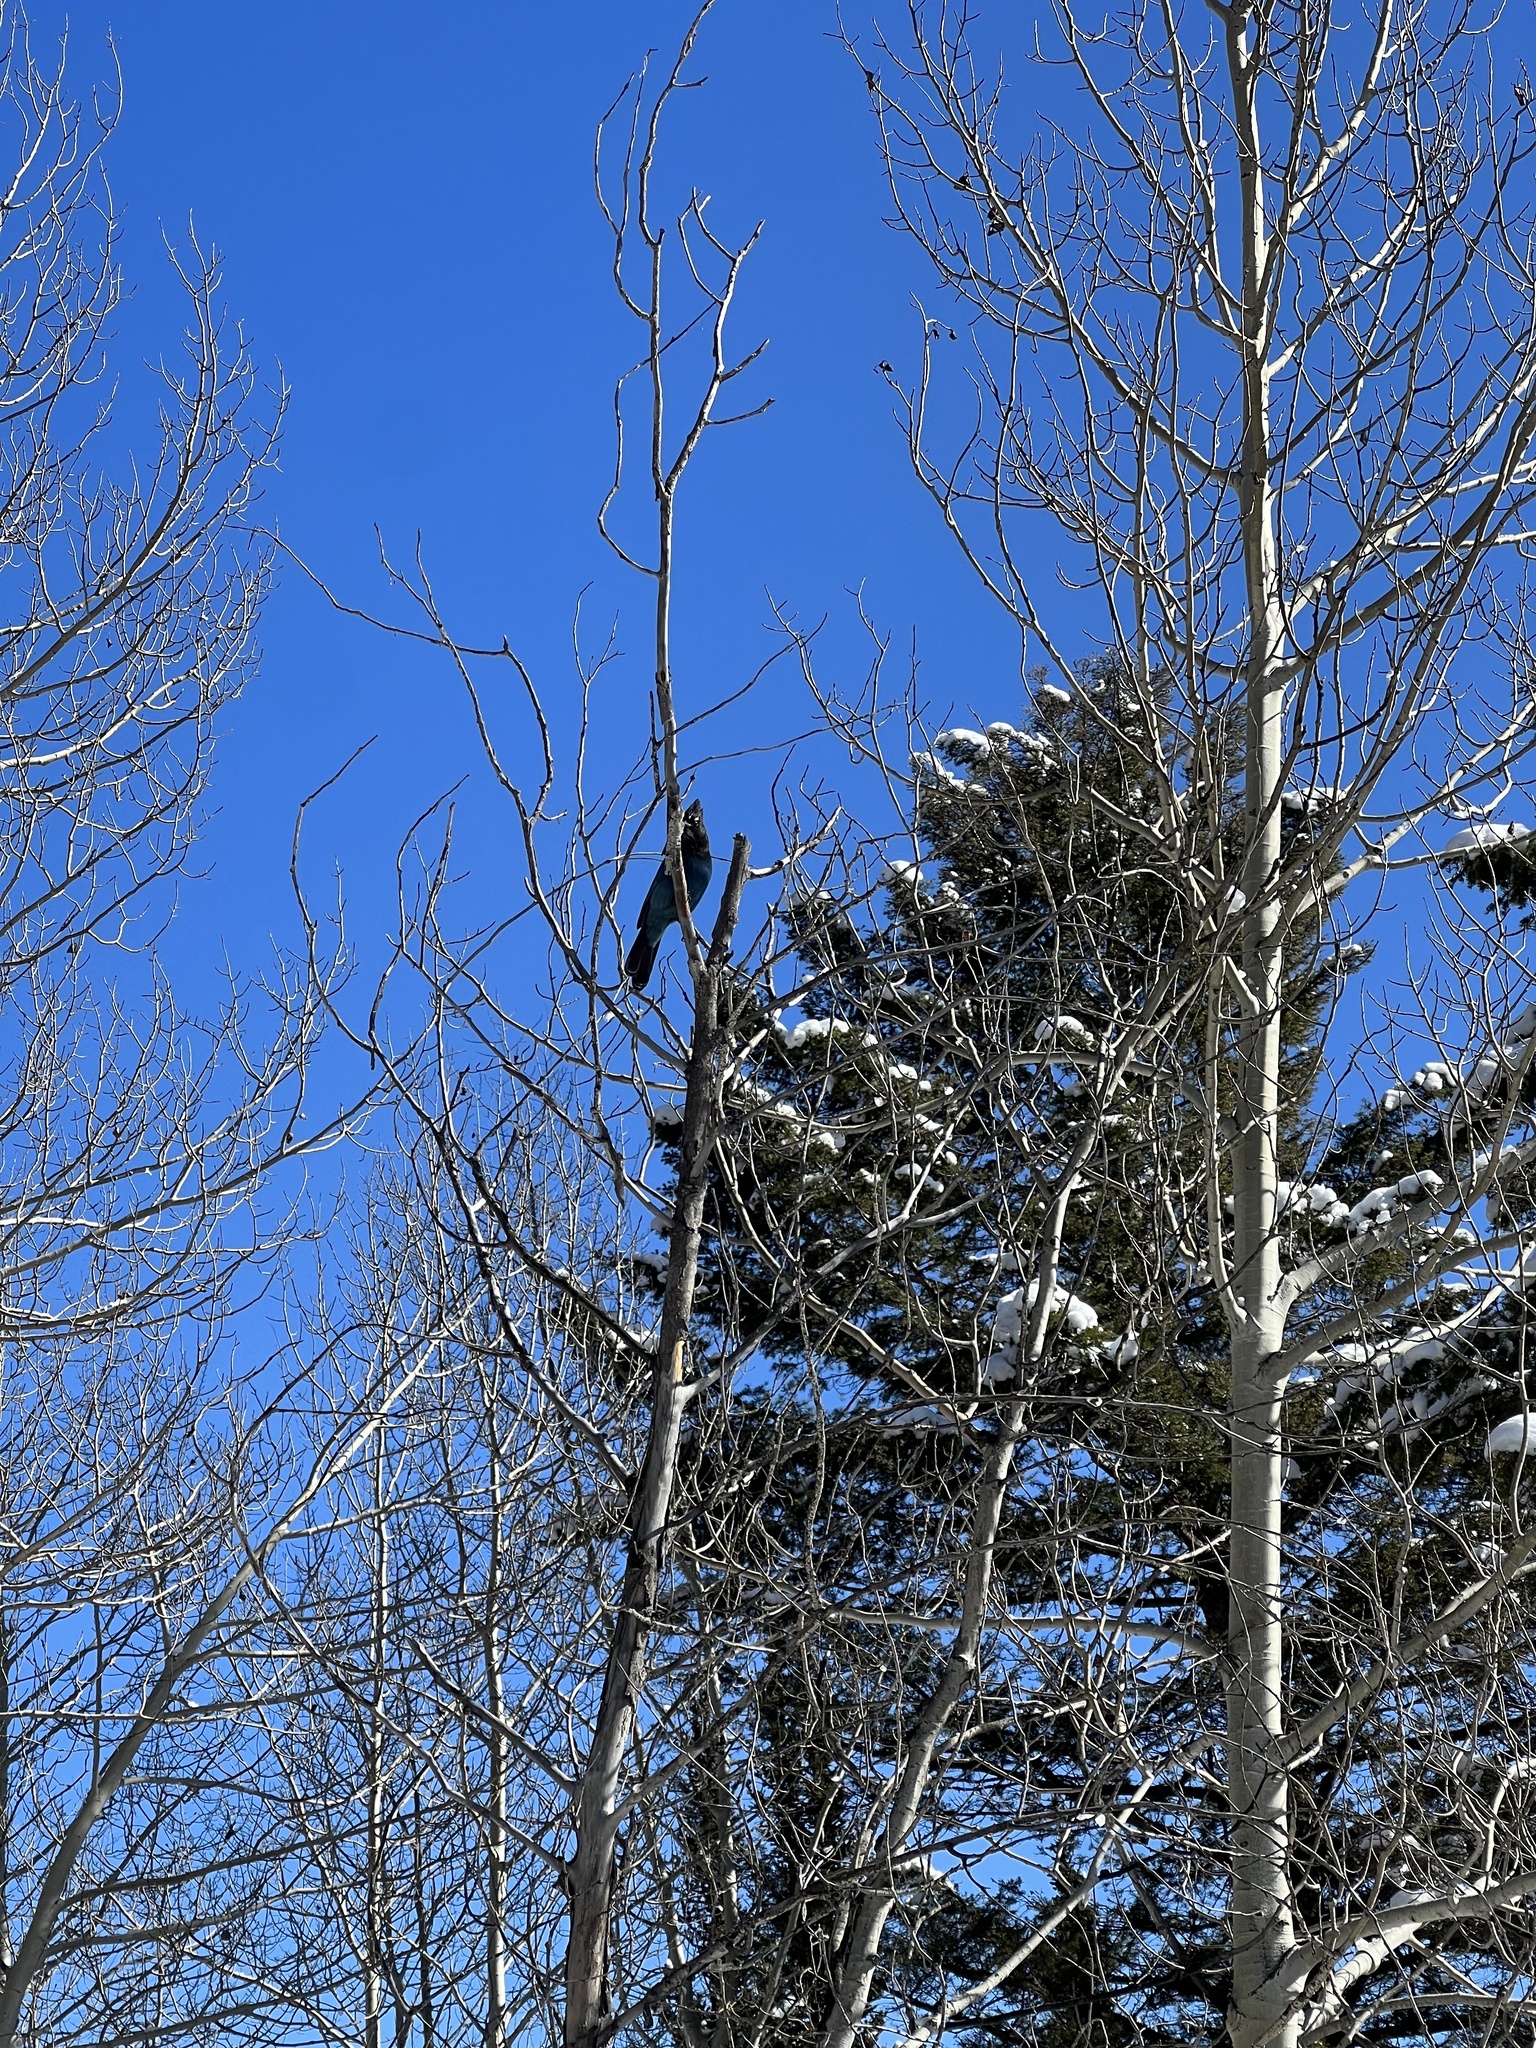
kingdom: Animalia
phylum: Chordata
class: Aves
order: Passeriformes
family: Corvidae
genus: Cyanocitta
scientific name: Cyanocitta stelleri
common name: Steller's jay
